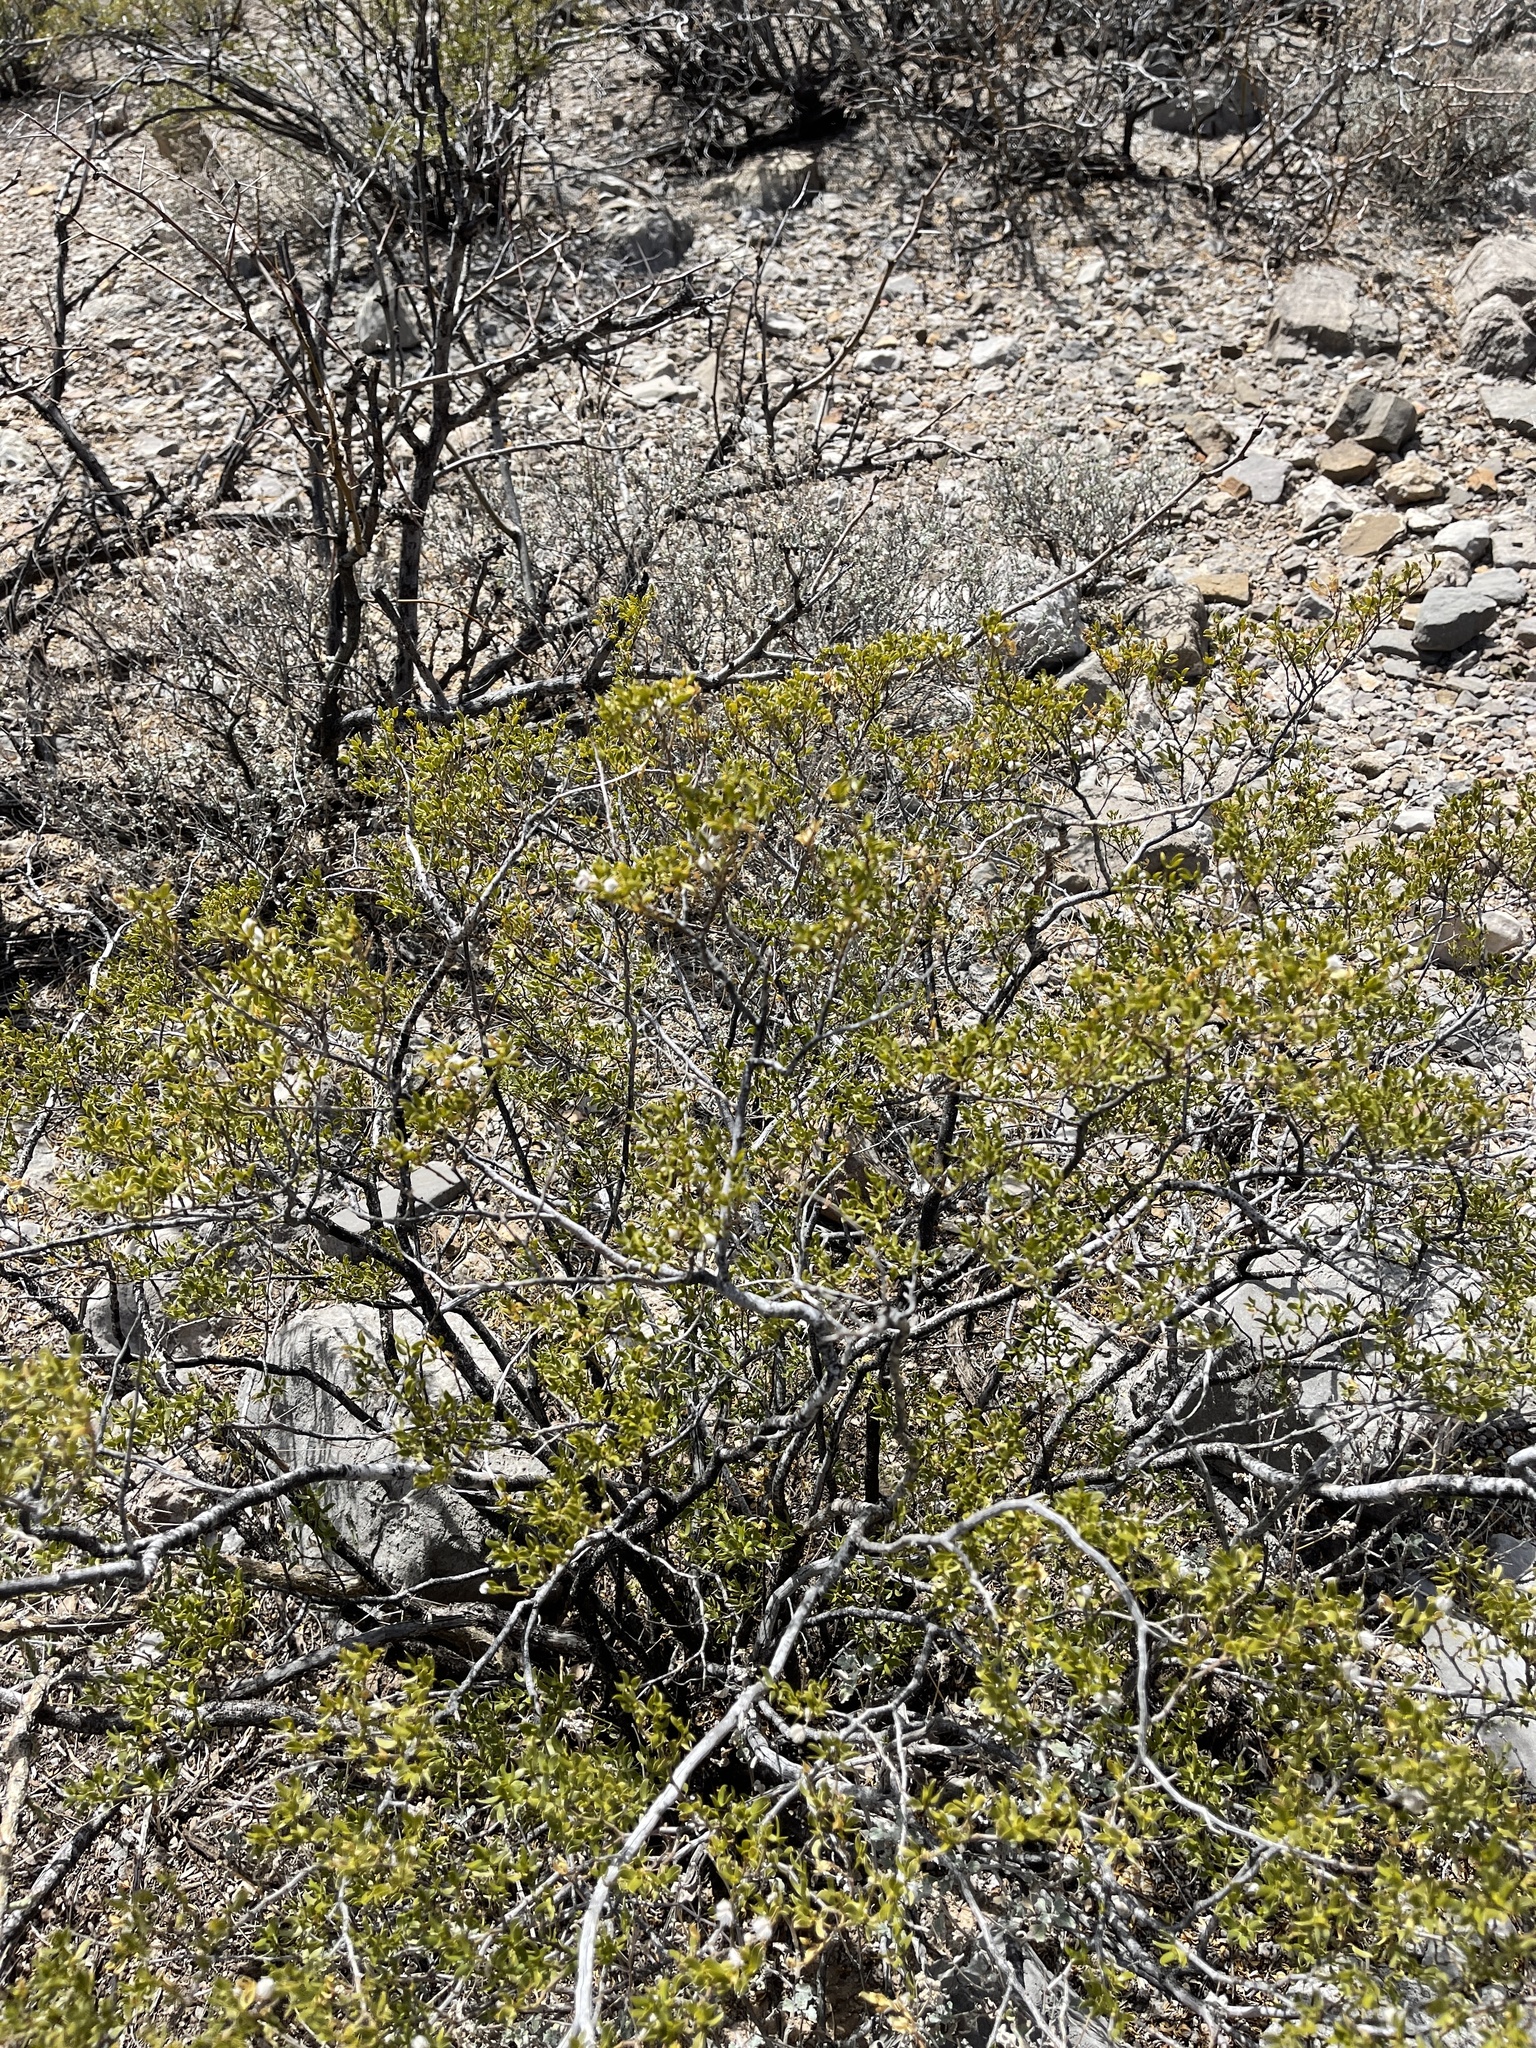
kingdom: Plantae
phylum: Tracheophyta
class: Magnoliopsida
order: Zygophyllales
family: Zygophyllaceae
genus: Larrea
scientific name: Larrea tridentata
